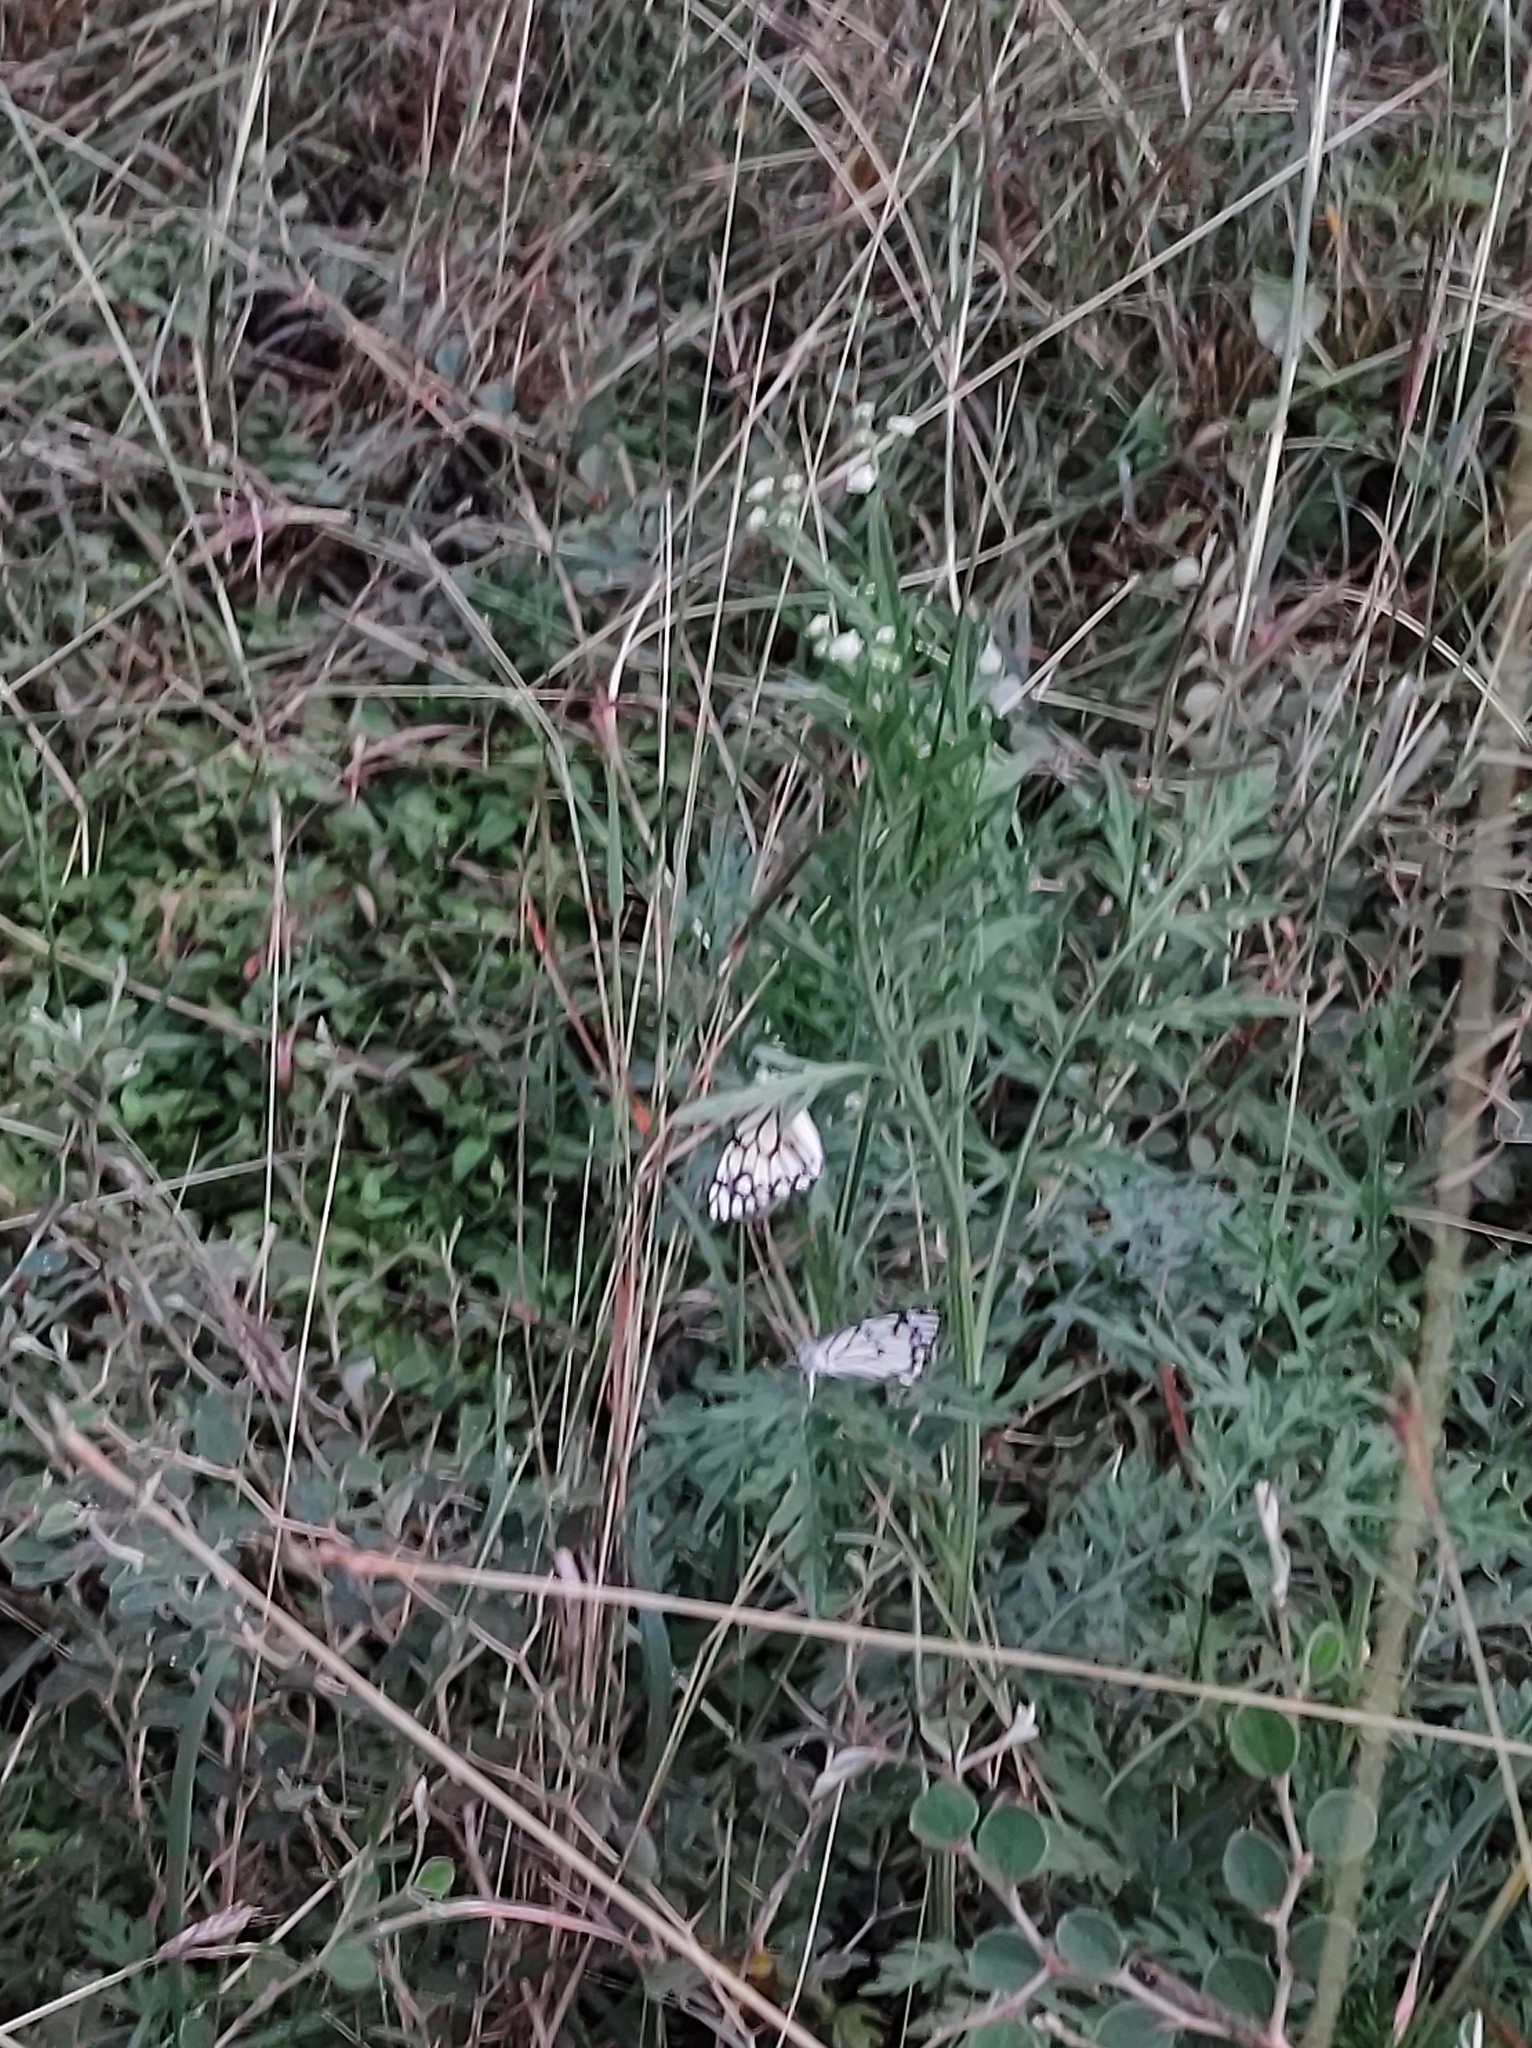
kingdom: Animalia
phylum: Arthropoda
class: Insecta
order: Lepidoptera
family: Pieridae
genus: Belenois
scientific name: Belenois aurota
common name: Brown-veined white
